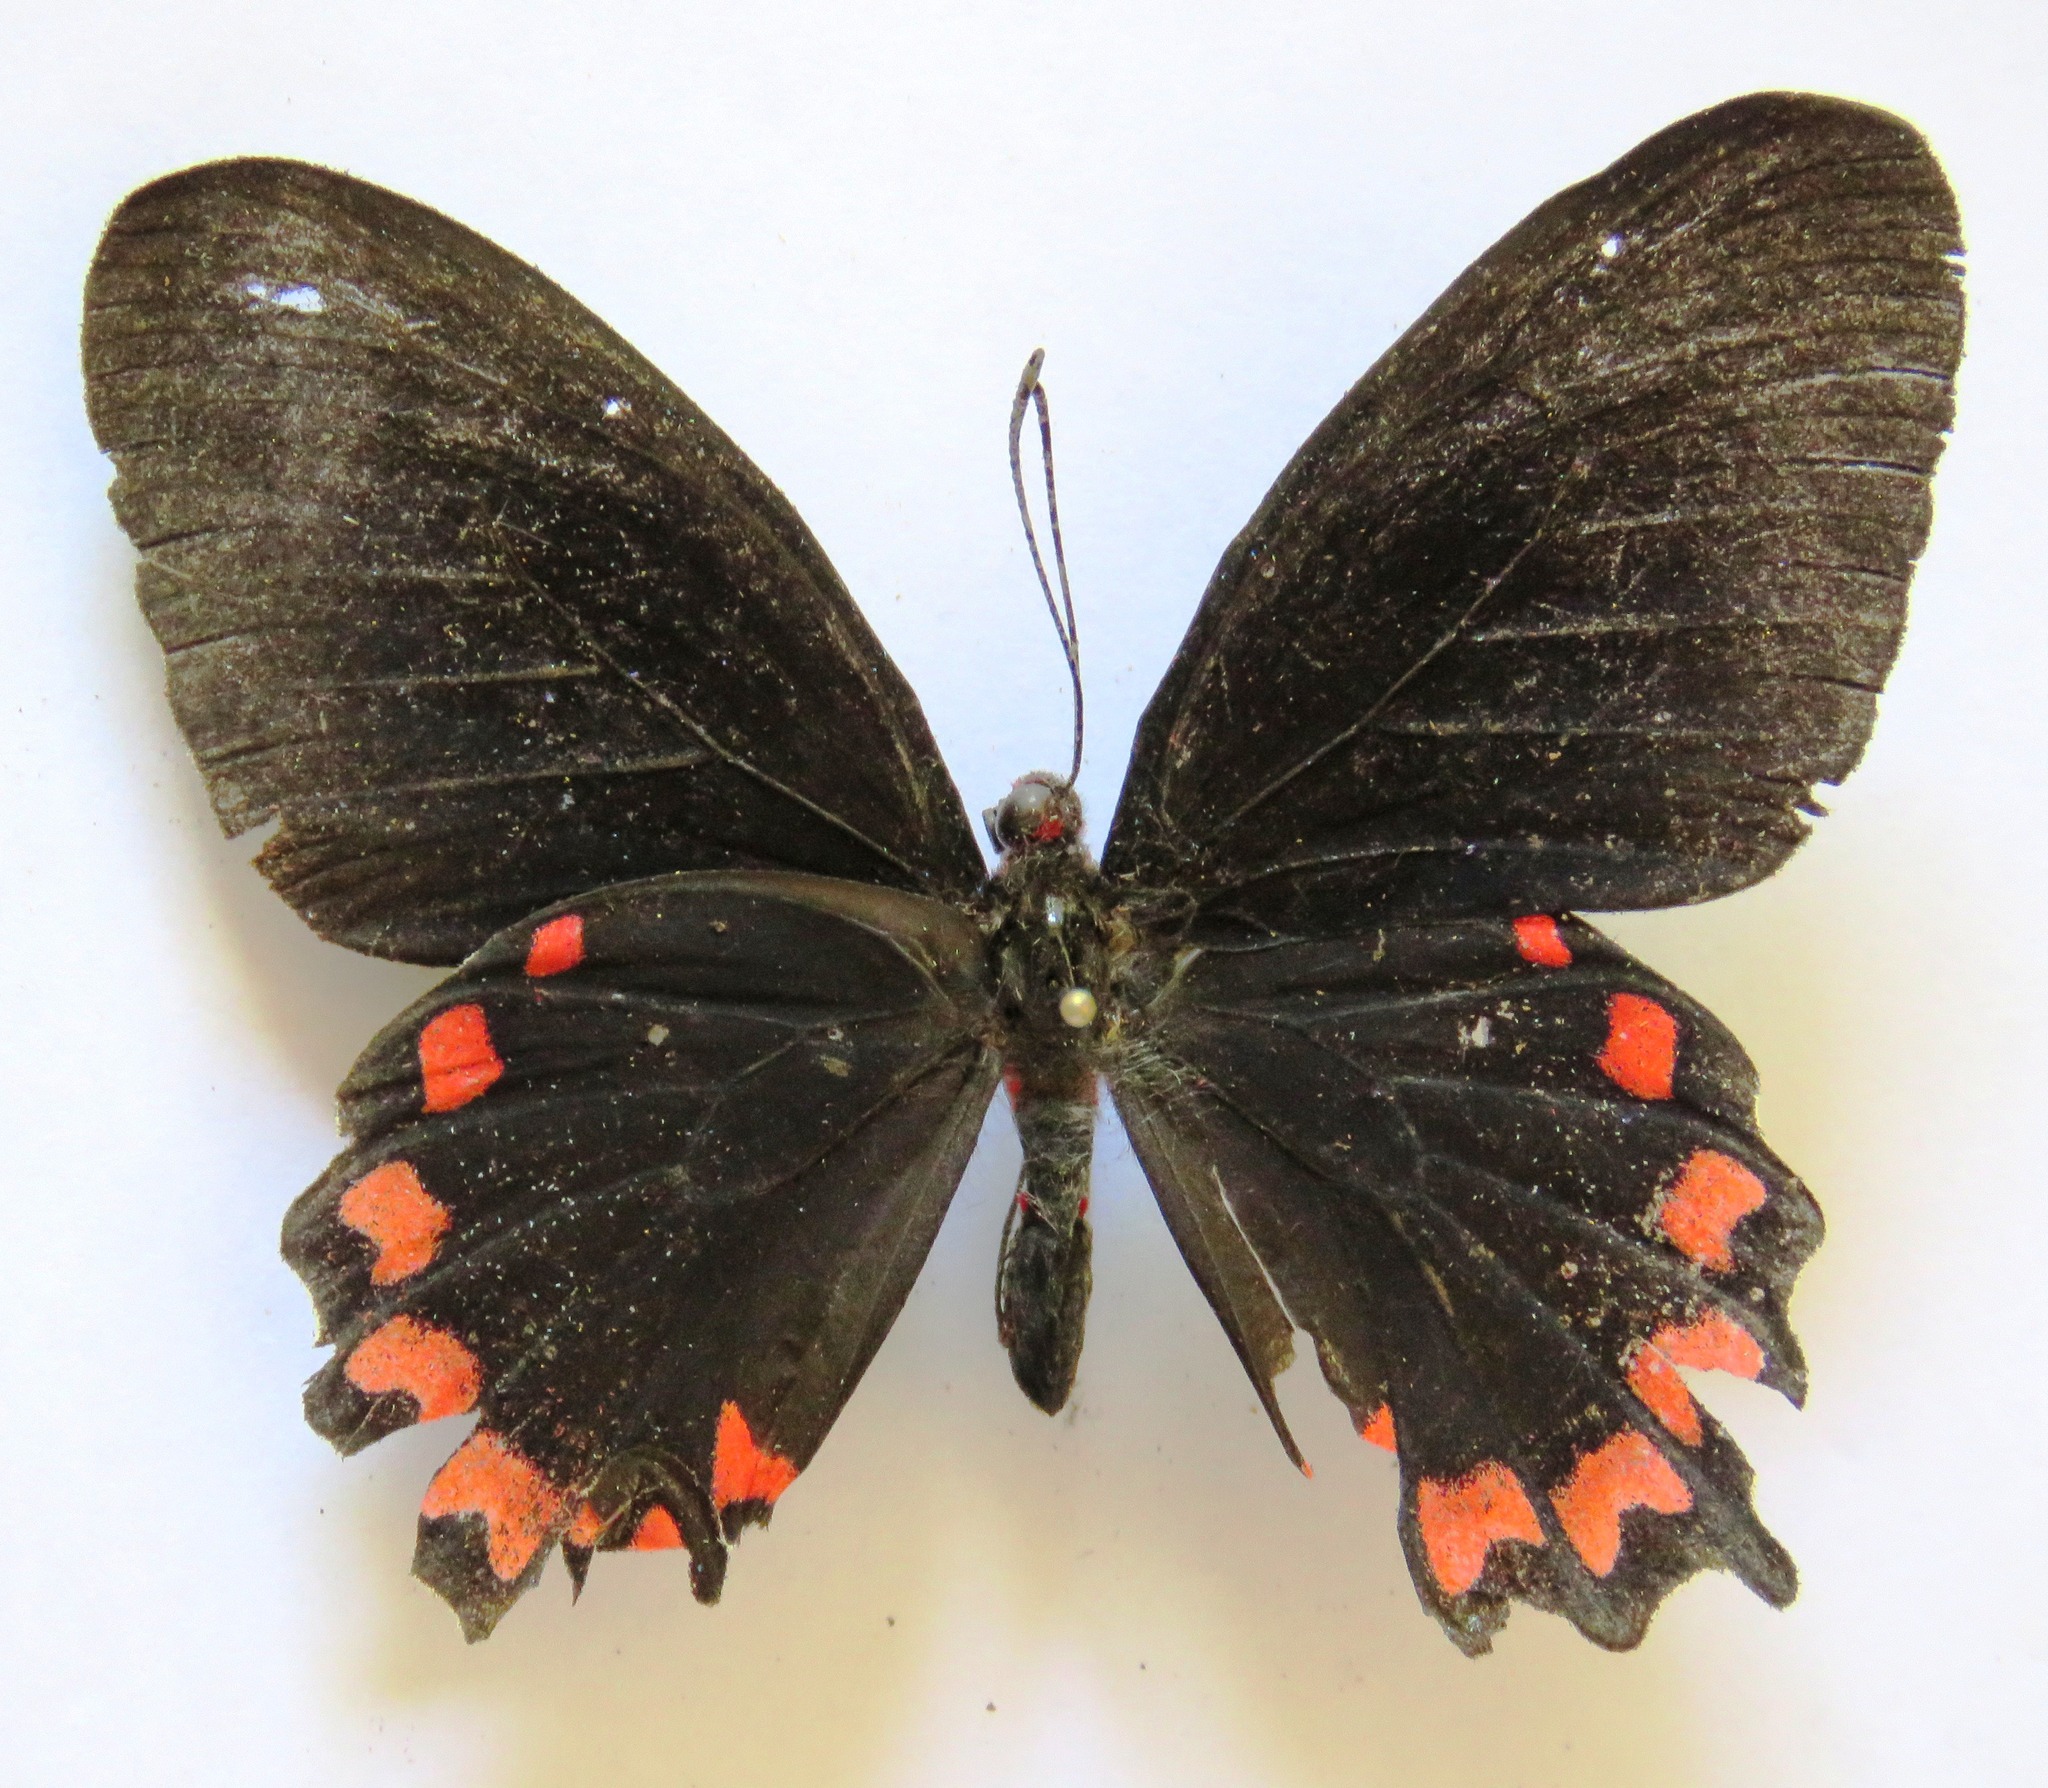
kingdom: Animalia
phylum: Arthropoda
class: Insecta
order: Lepidoptera
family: Papilionidae
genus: Parides
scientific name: Parides montezuma
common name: Montezuma's cattleheart
